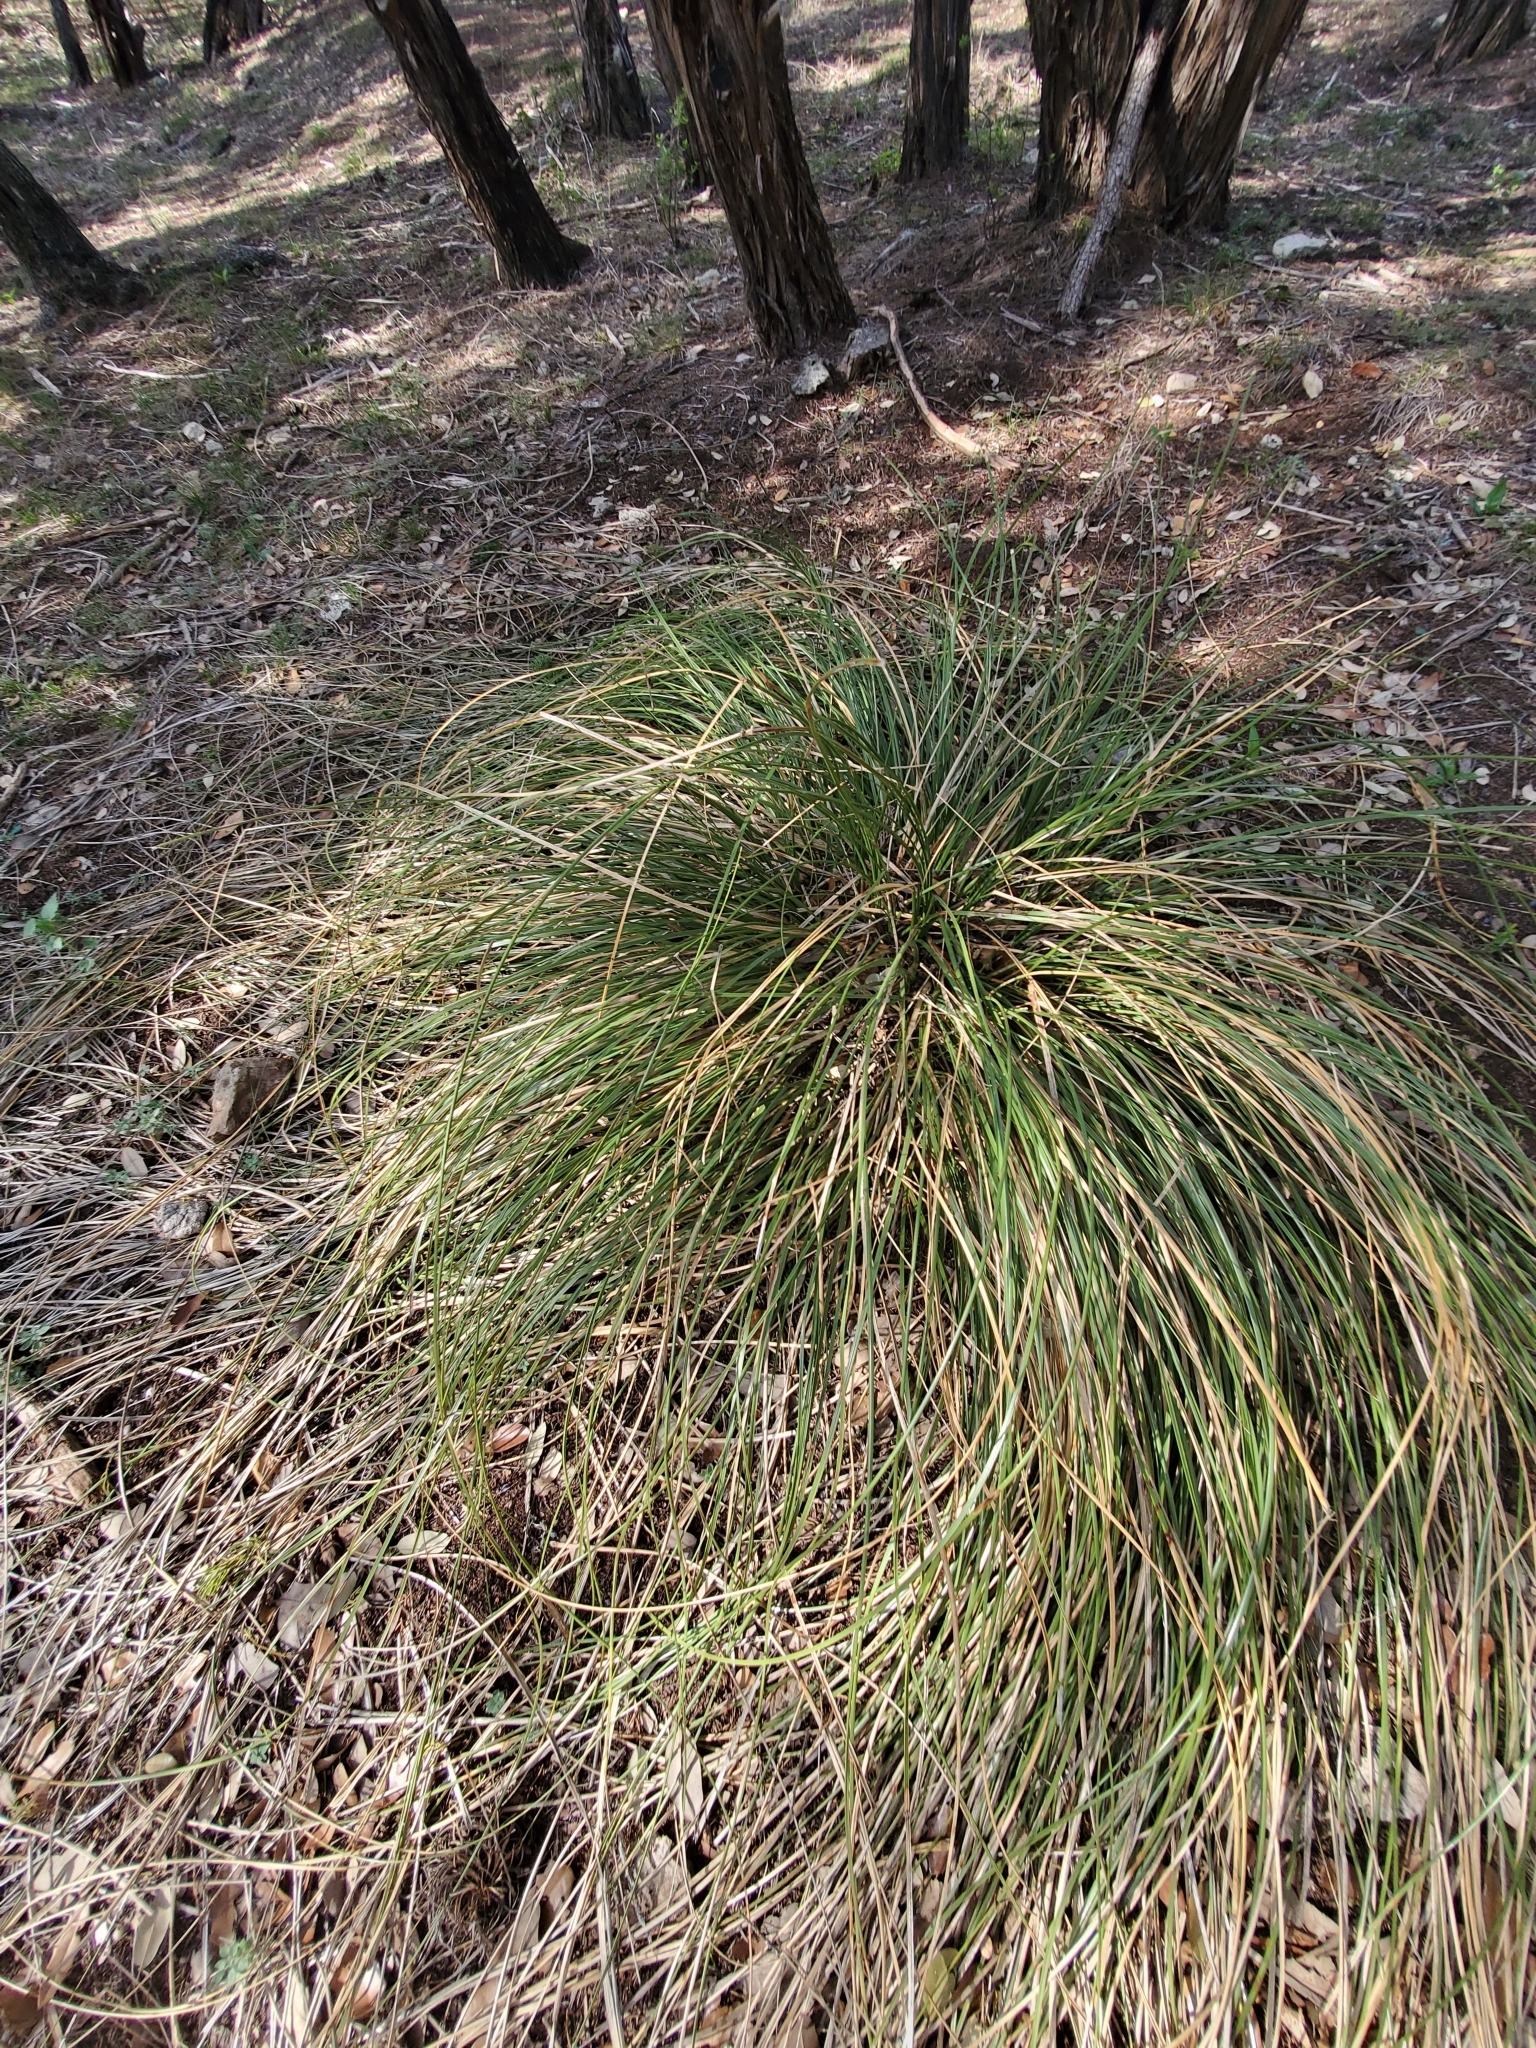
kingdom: Plantae
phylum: Tracheophyta
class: Liliopsida
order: Asparagales
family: Asparagaceae
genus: Nolina
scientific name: Nolina texana
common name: Texas sacahuiste
